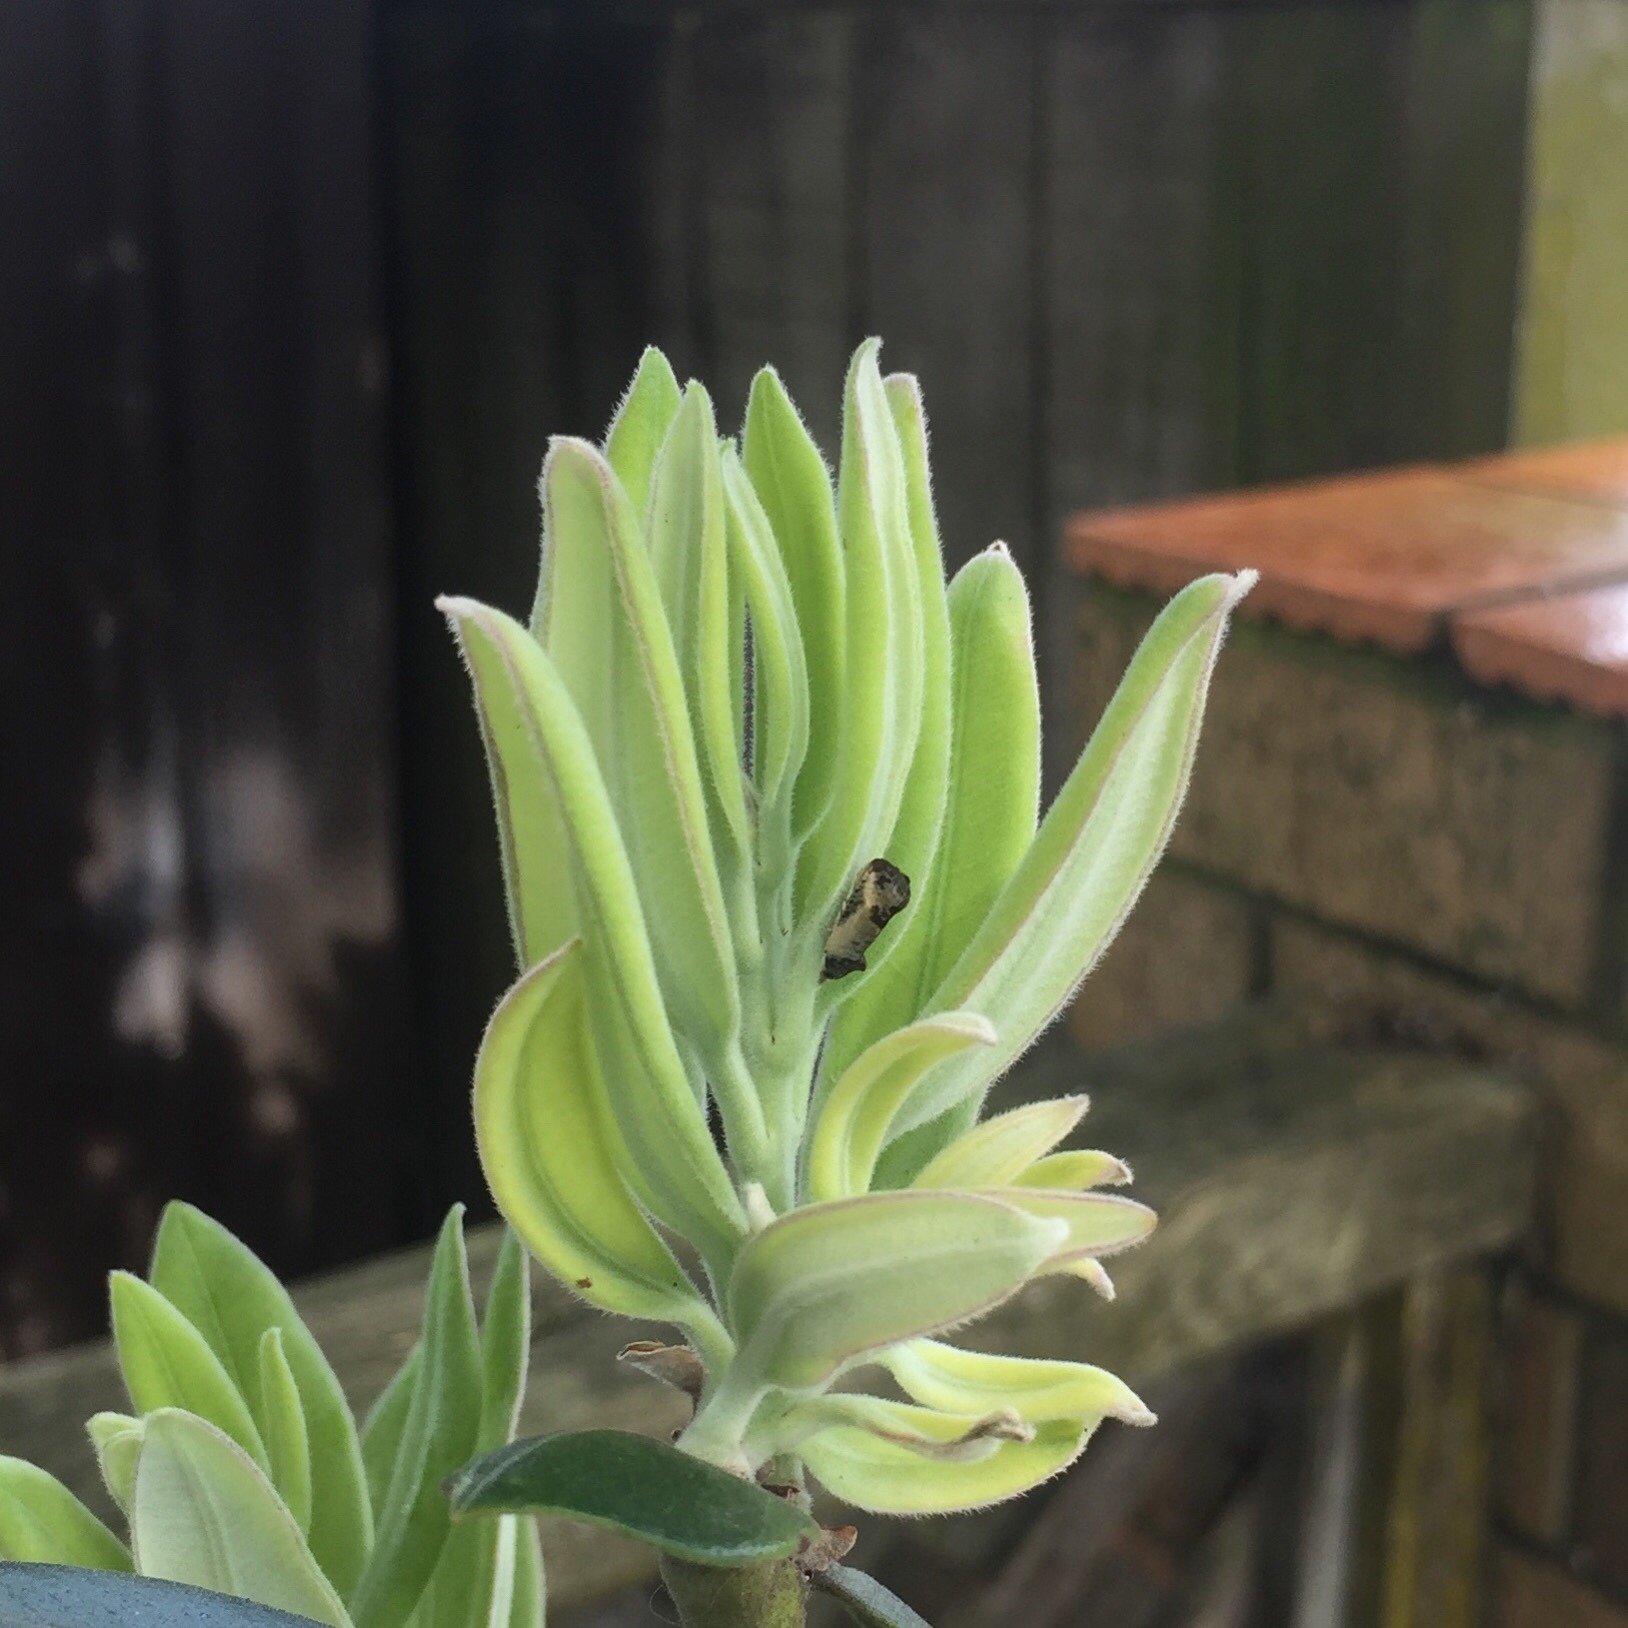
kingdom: Animalia
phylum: Arthropoda
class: Insecta
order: Lepidoptera
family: Tortricidae
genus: Argyroploce
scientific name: Argyroploce chlorosaris
